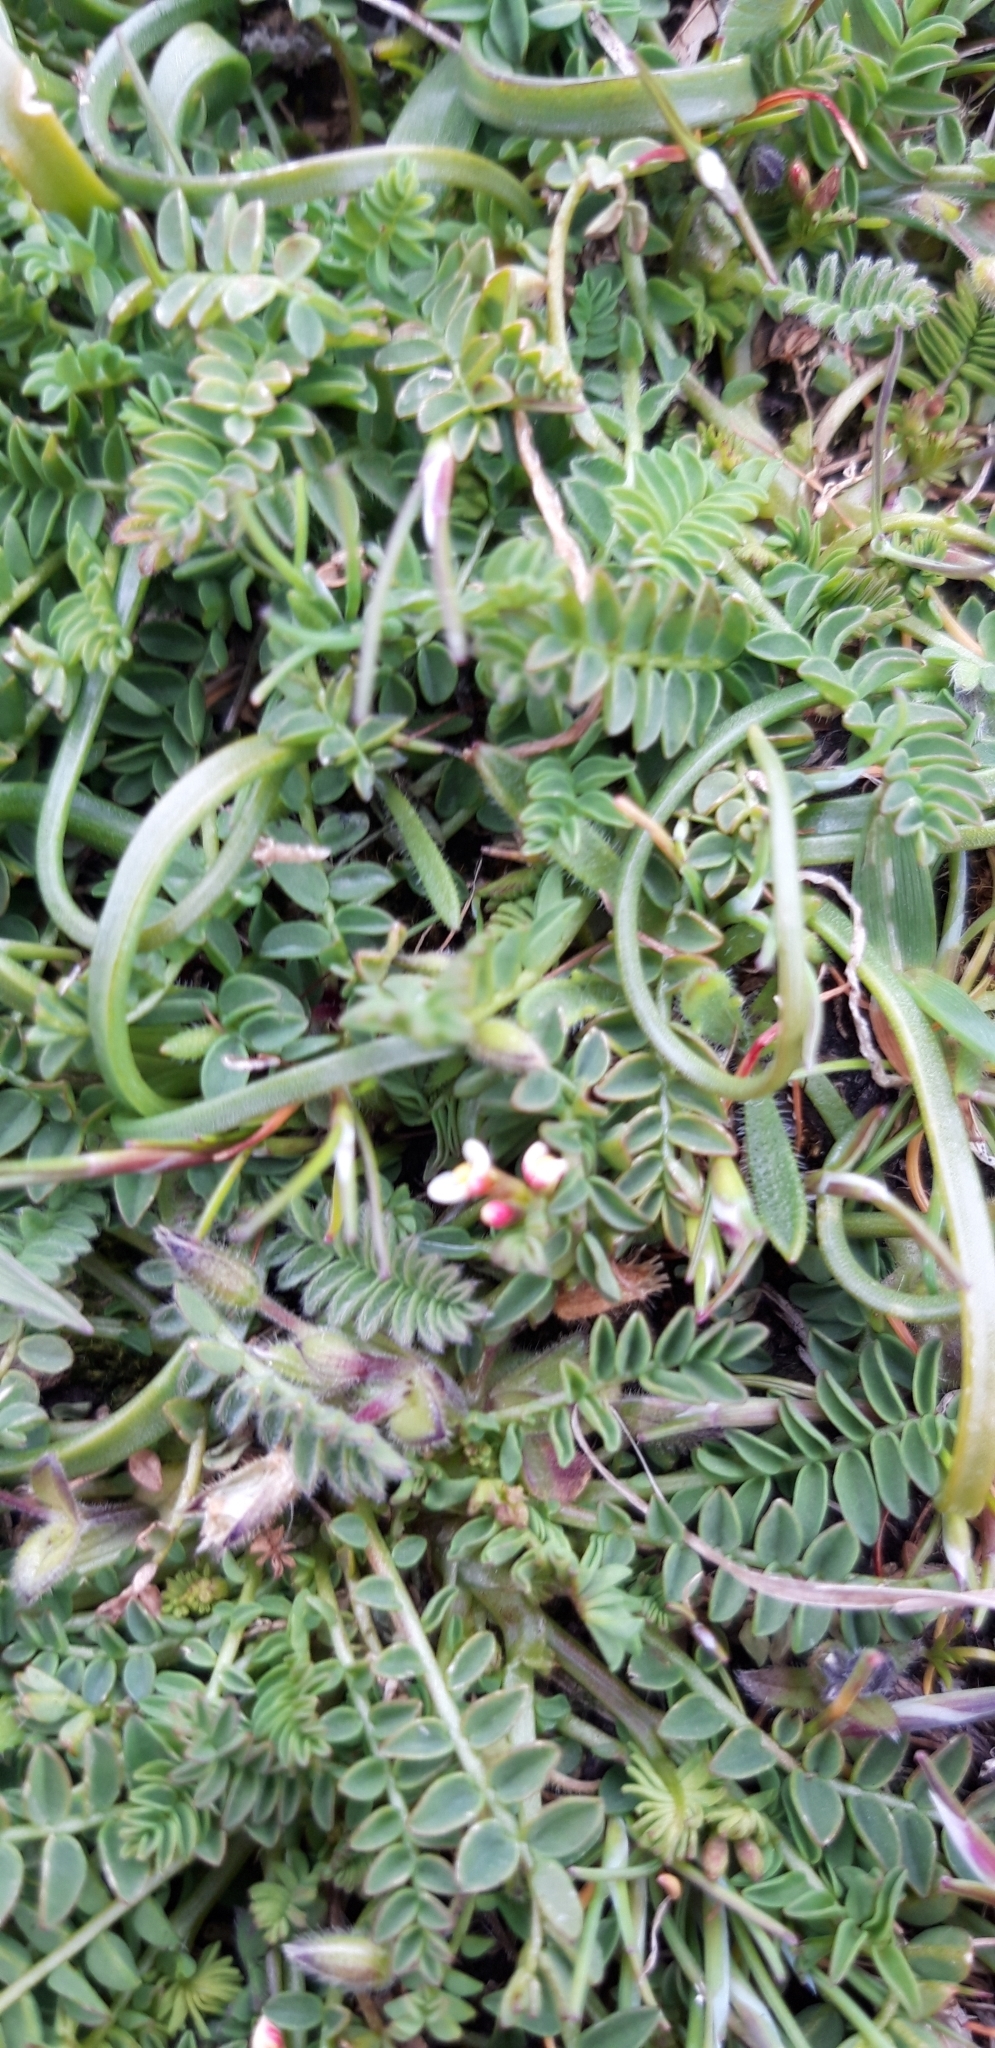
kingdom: Plantae
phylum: Tracheophyta
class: Magnoliopsida
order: Fabales
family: Fabaceae
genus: Ornithopus
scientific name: Ornithopus perpusillus
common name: Bird's-foot
